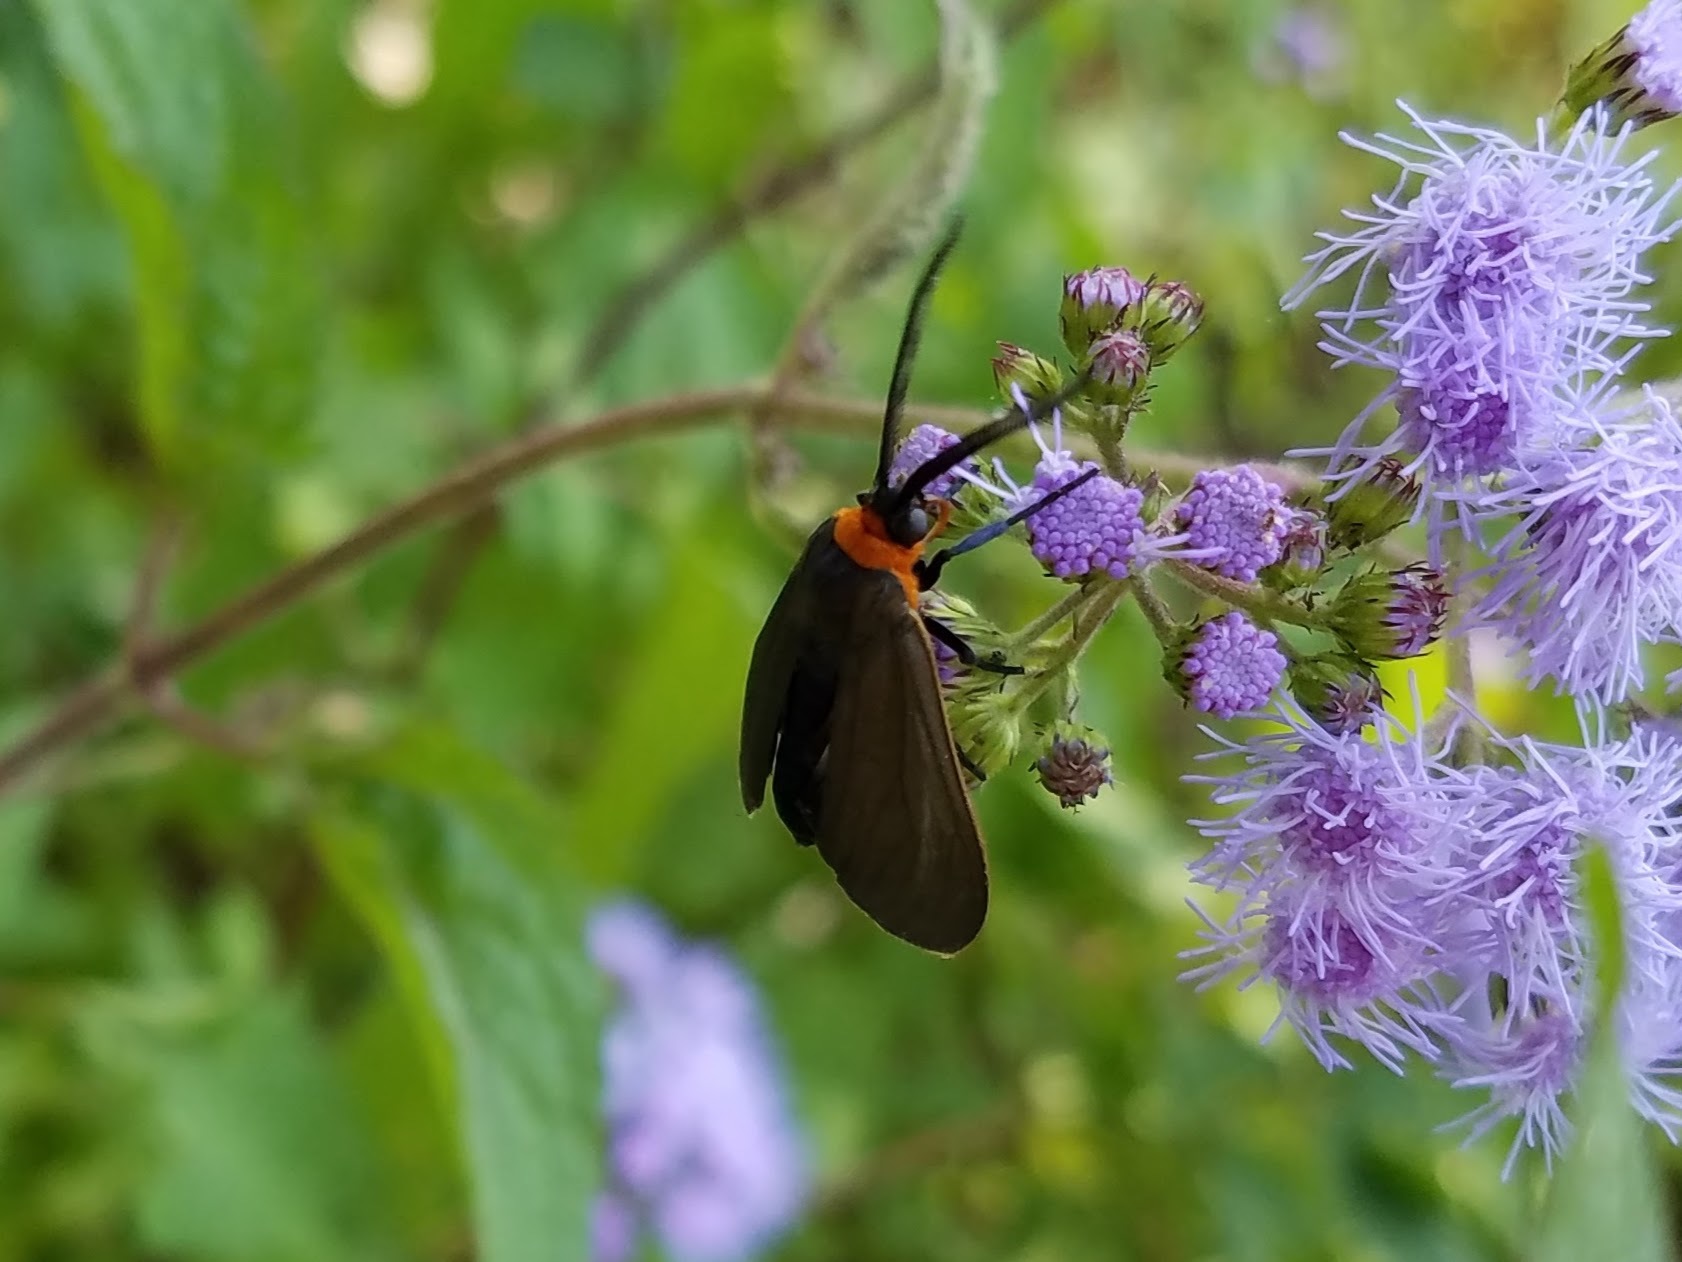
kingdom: Animalia
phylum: Arthropoda
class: Insecta
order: Lepidoptera
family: Erebidae
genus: Cisseps
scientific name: Cisseps fulvicollis
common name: Yellow-collared scape moth
